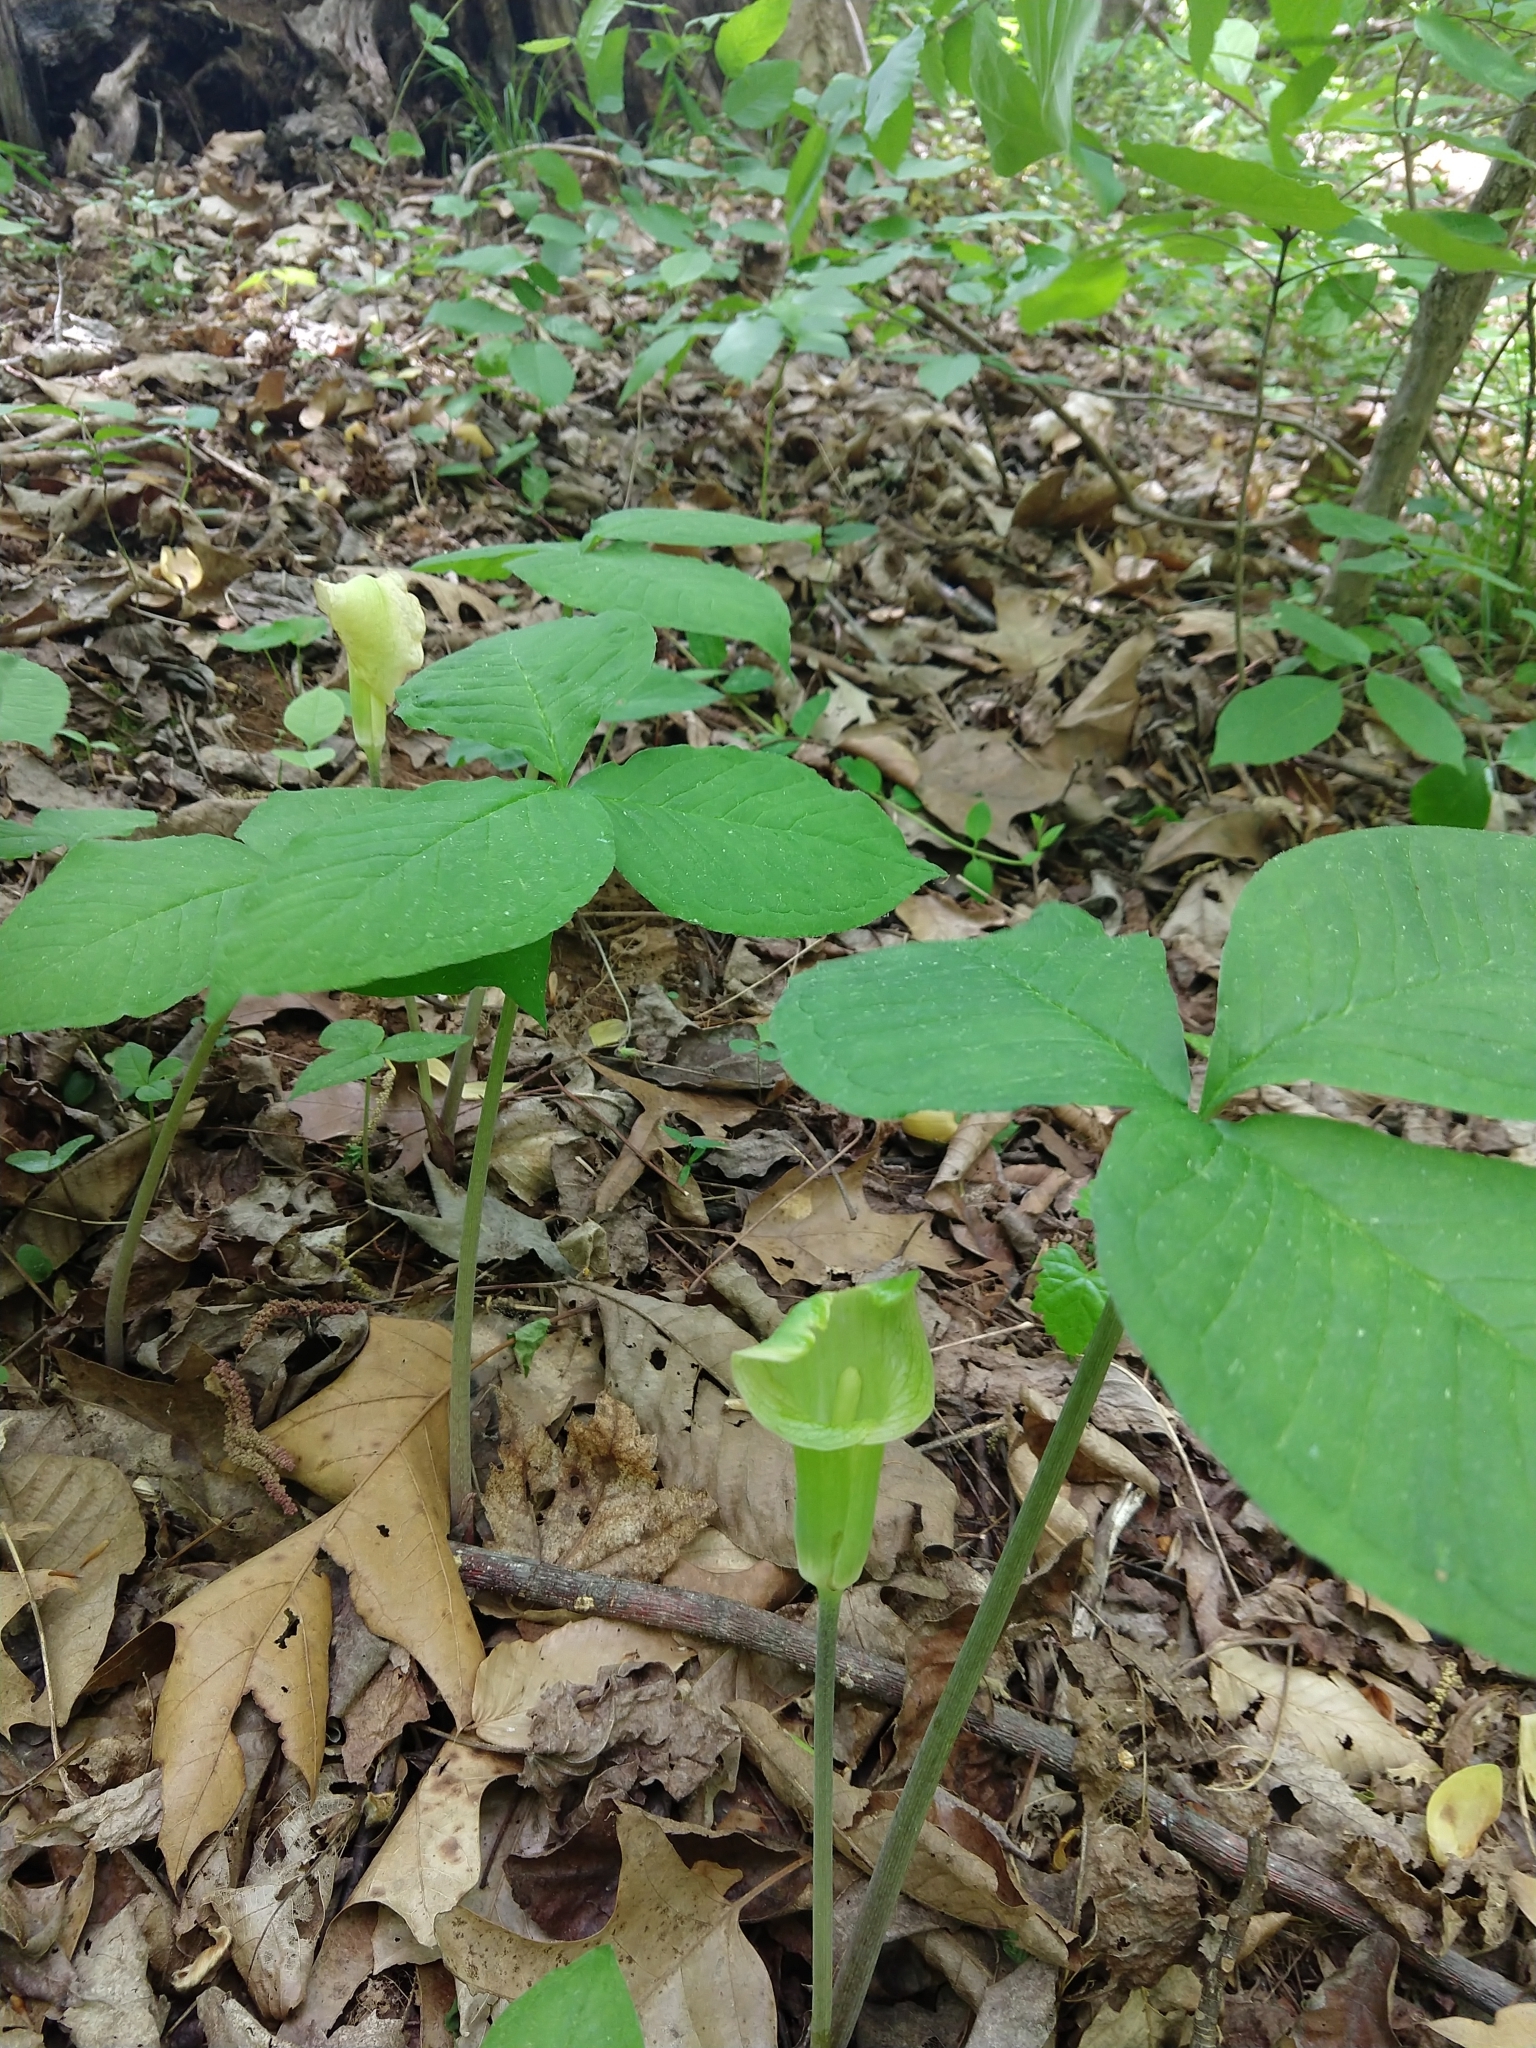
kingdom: Plantae
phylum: Tracheophyta
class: Liliopsida
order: Alismatales
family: Araceae
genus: Arisaema
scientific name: Arisaema triphyllum
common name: Jack-in-the-pulpit
